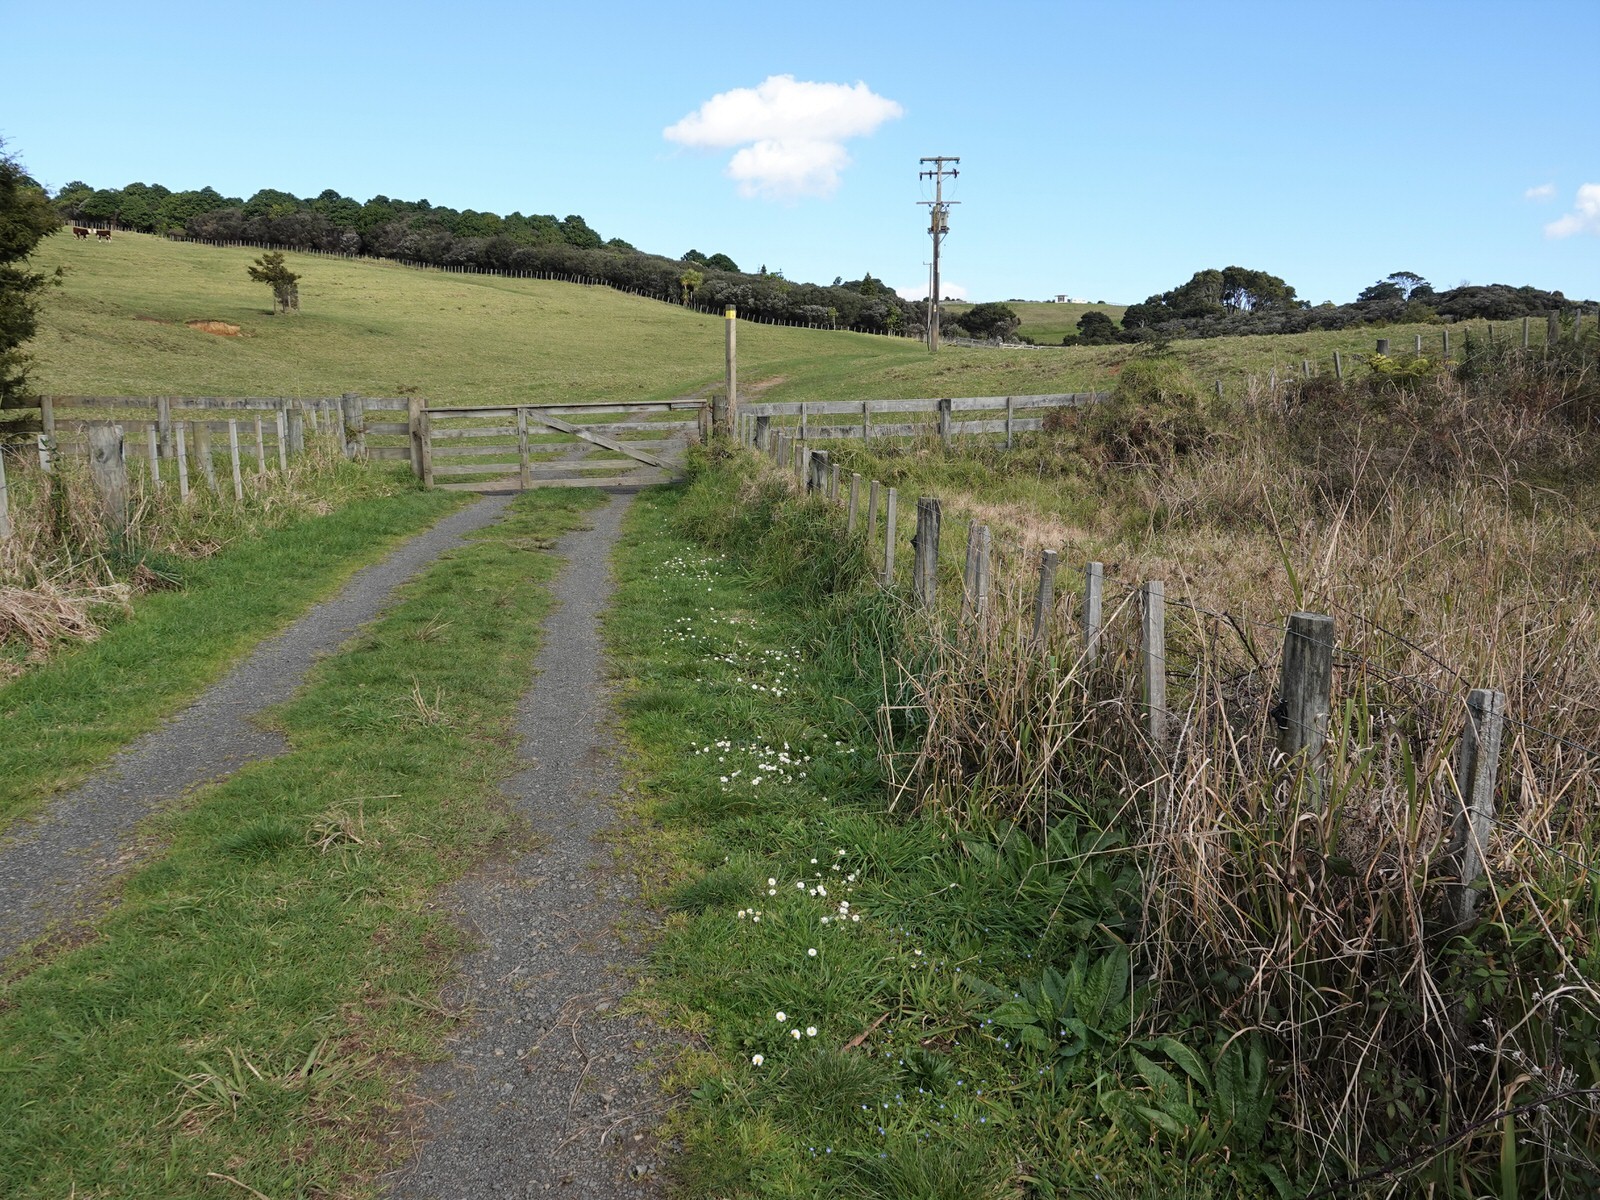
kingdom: Plantae
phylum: Tracheophyta
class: Magnoliopsida
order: Lamiales
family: Plantaginaceae
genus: Veronica
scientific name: Veronica persica
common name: Common field-speedwell
